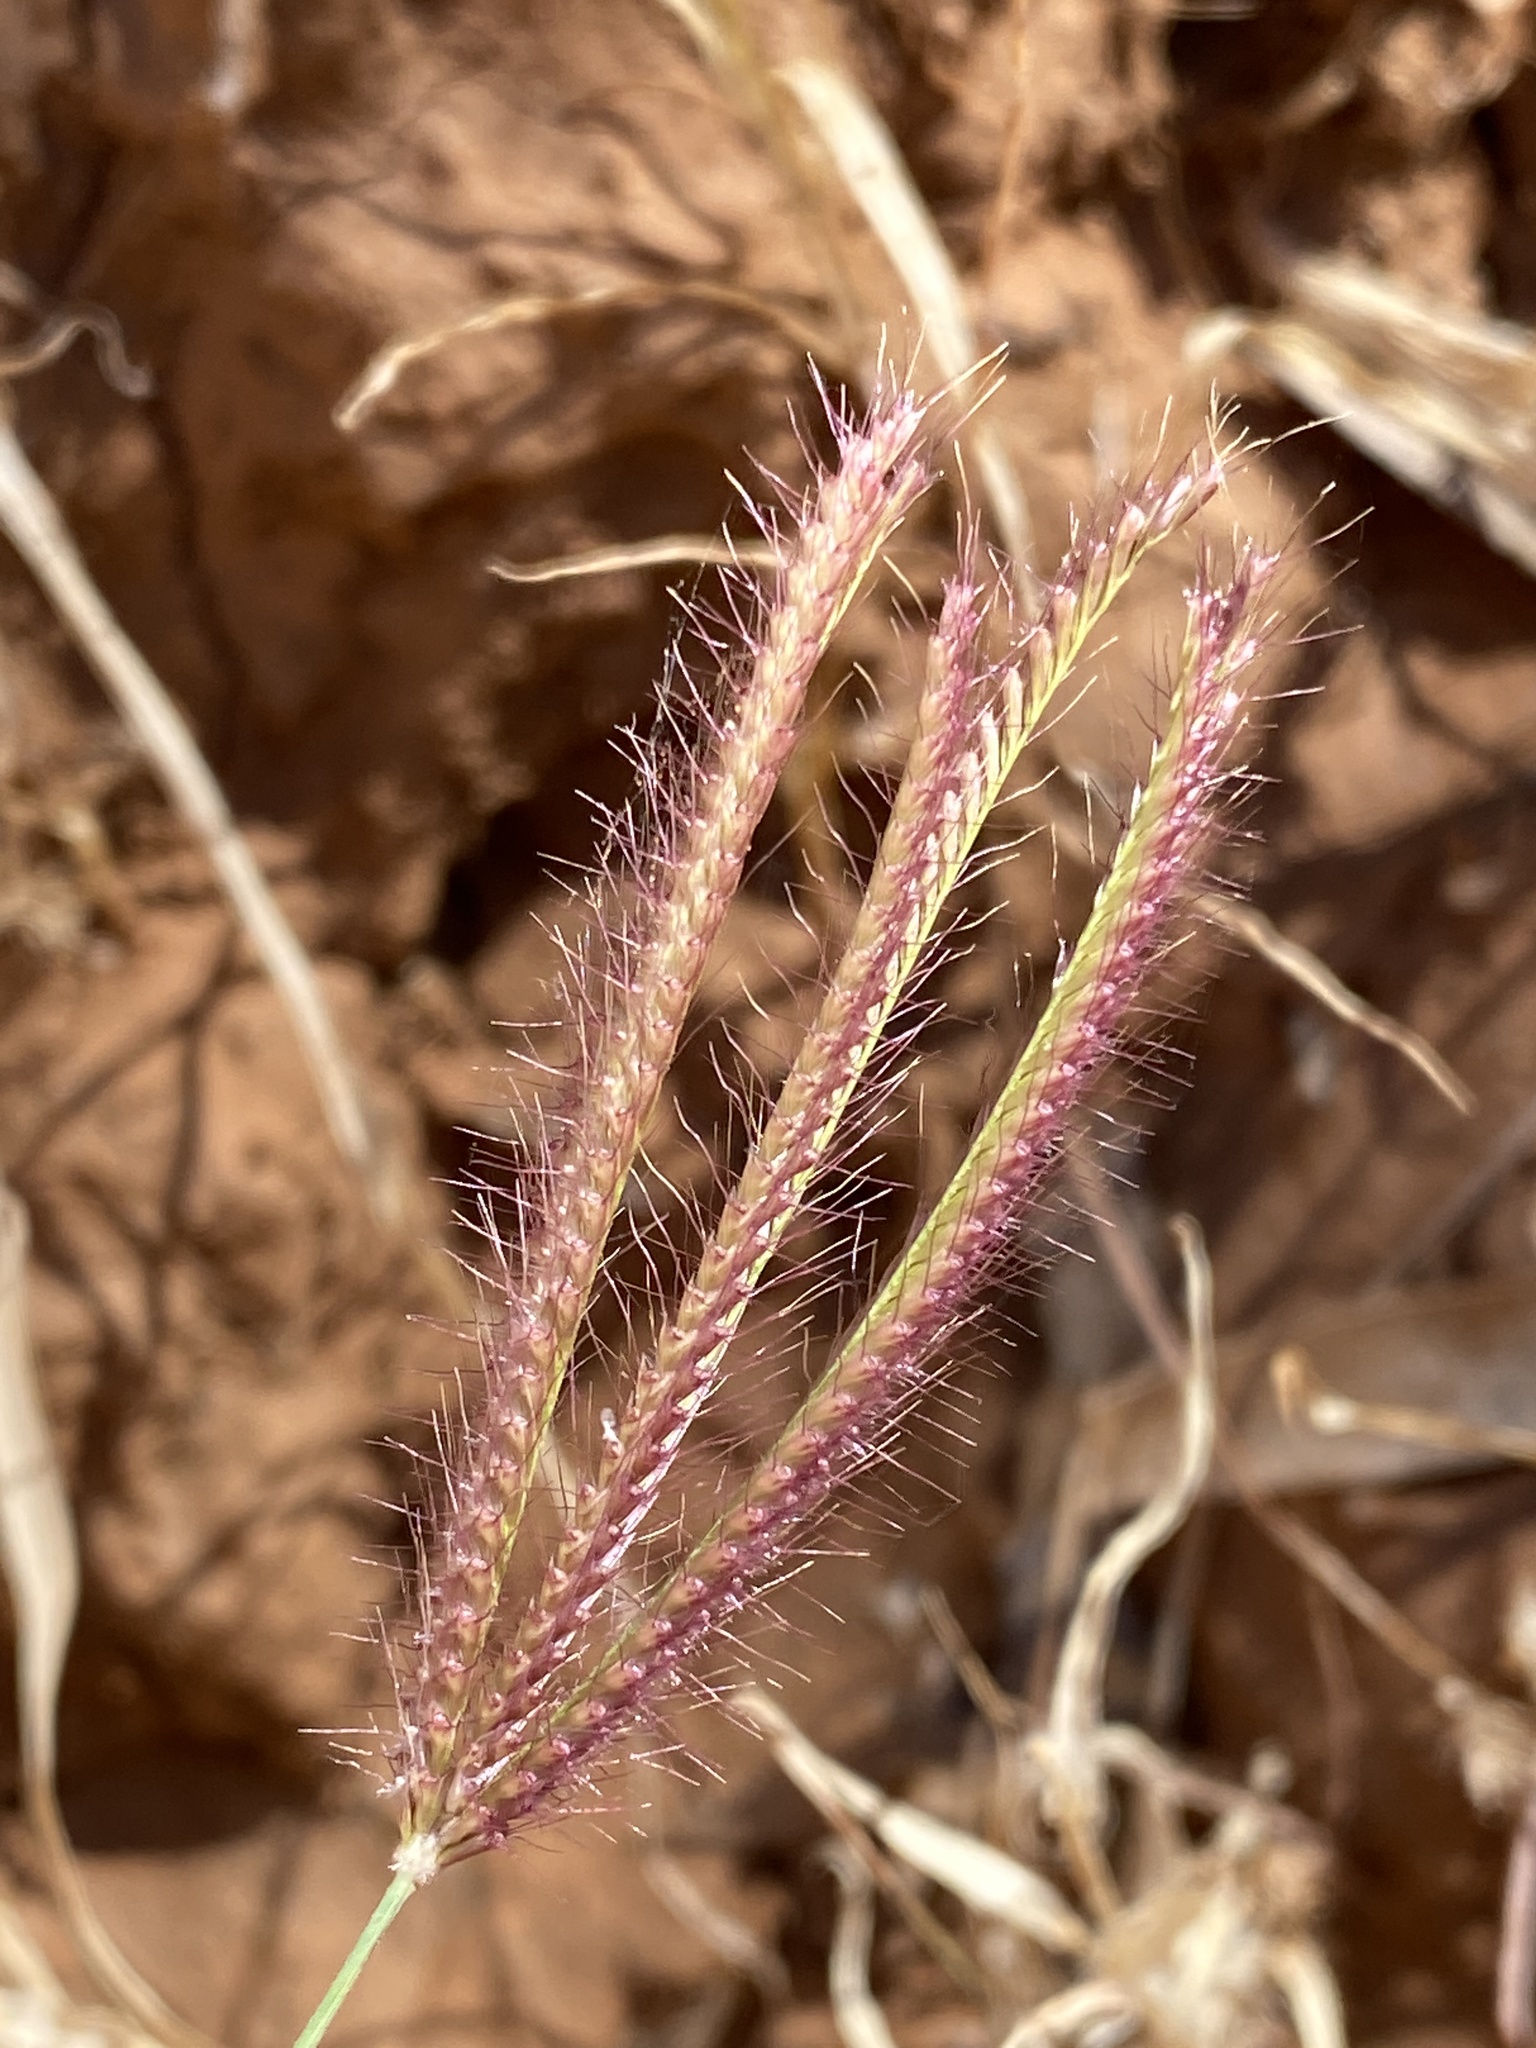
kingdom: Plantae
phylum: Tracheophyta
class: Liliopsida
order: Poales
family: Poaceae
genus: Chloris
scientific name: Chloris virgata
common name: Feathery rhodes-grass
